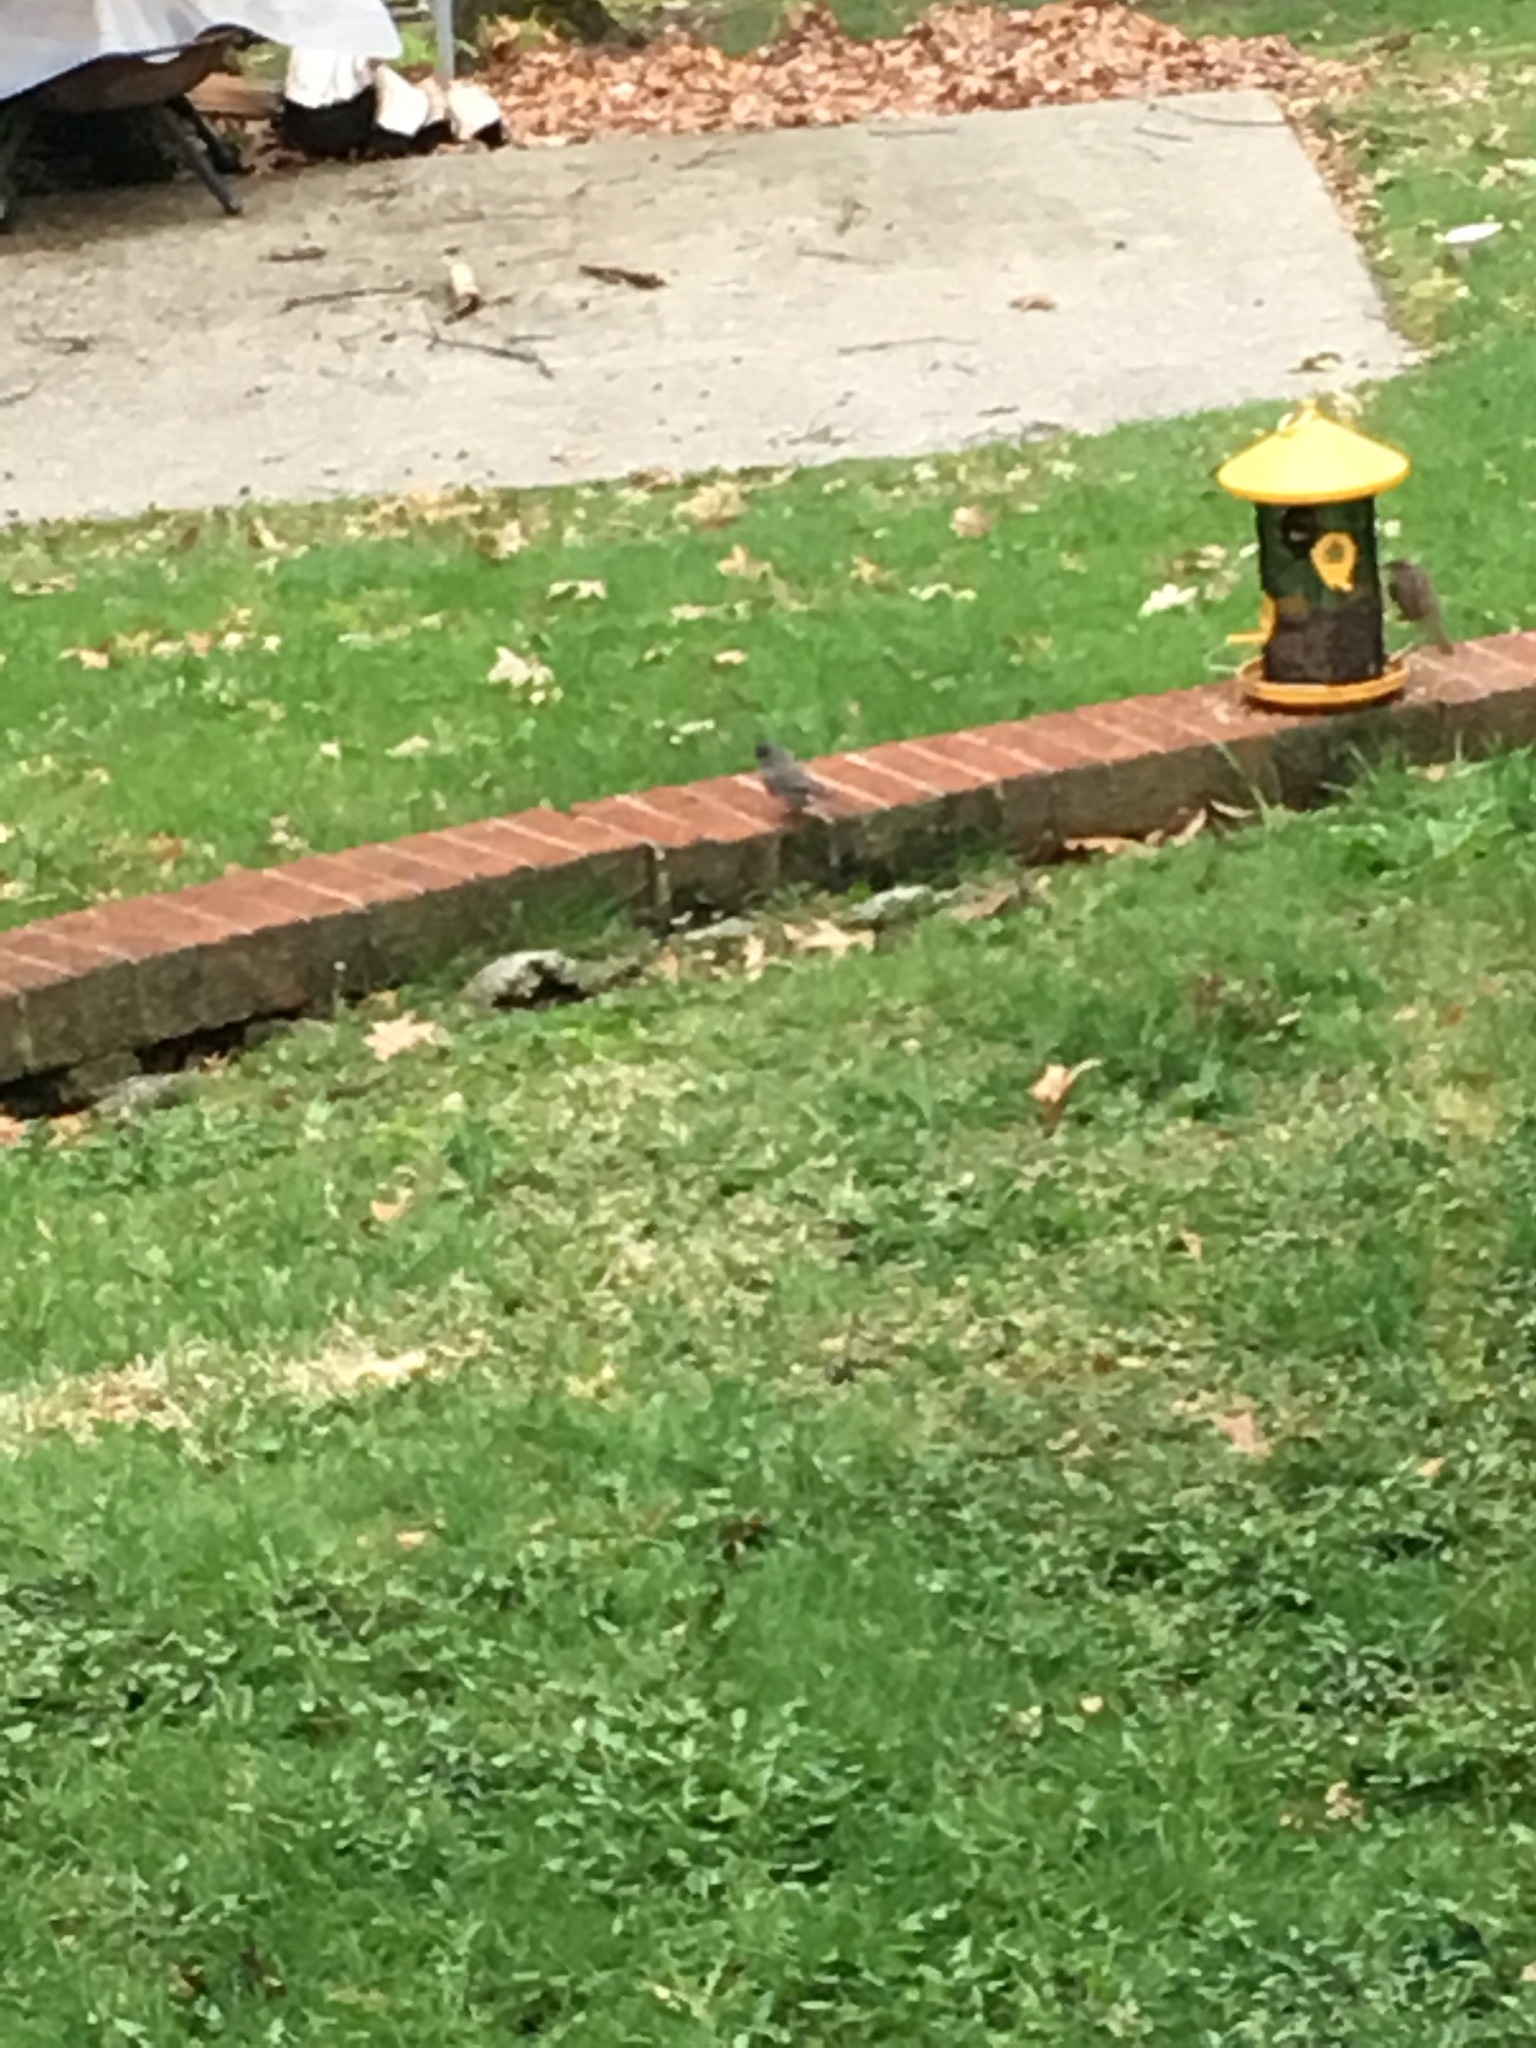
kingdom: Animalia
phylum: Chordata
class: Aves
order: Passeriformes
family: Passerellidae
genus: Junco
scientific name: Junco hyemalis
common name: Dark-eyed junco
